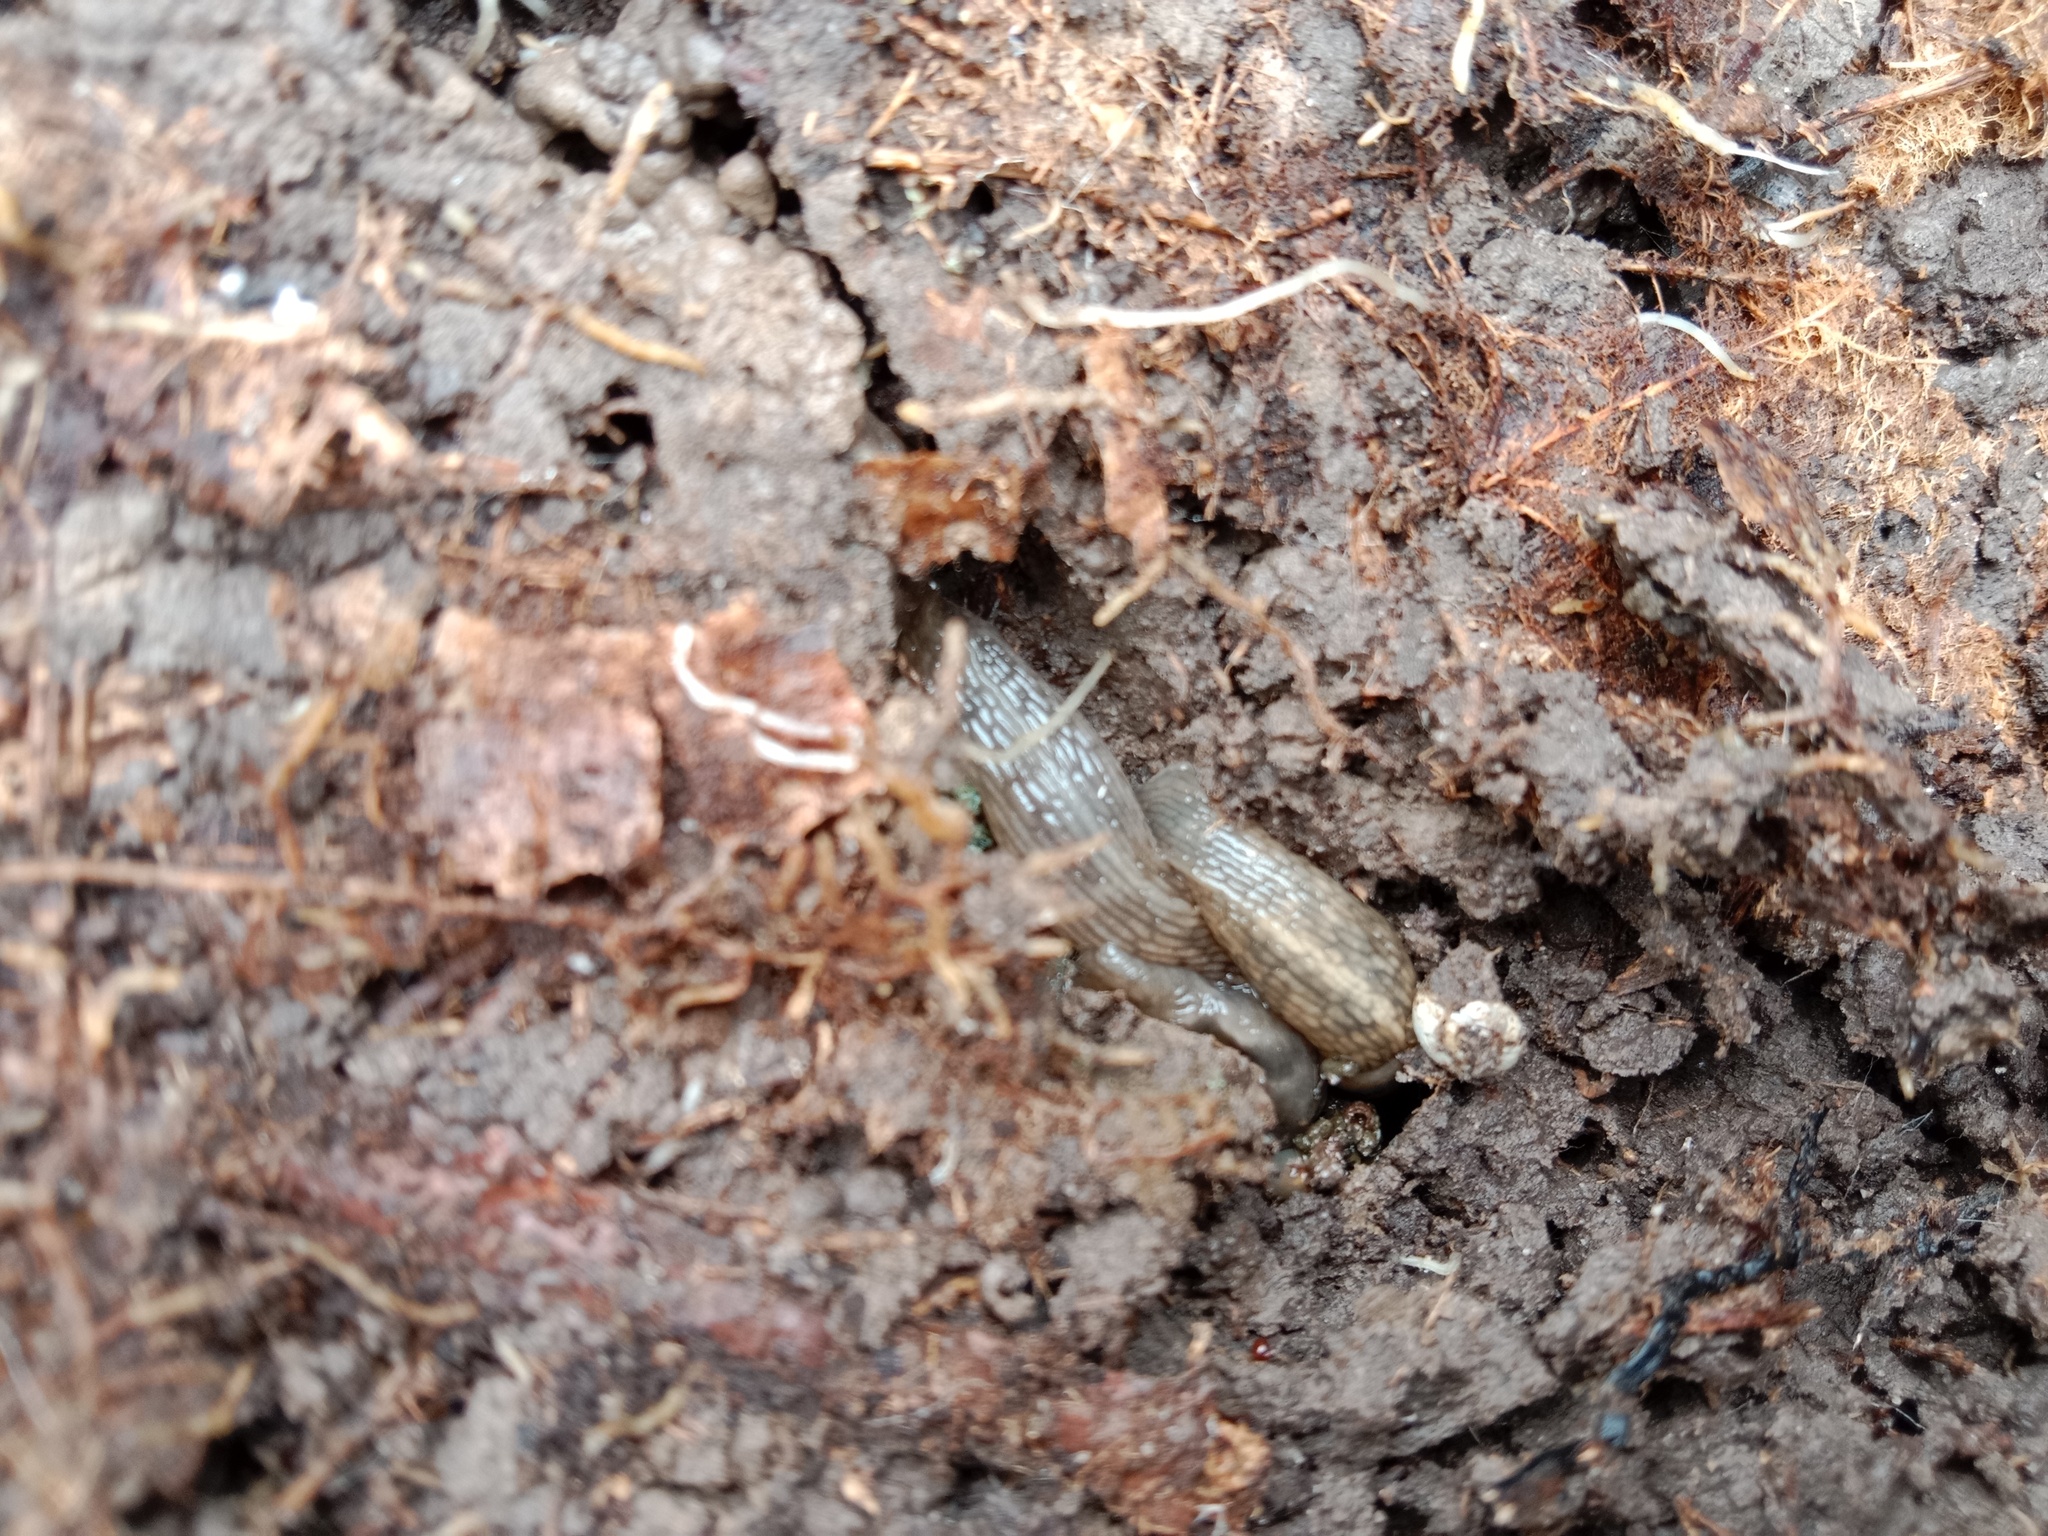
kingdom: Animalia
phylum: Mollusca
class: Gastropoda
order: Stylommatophora
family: Limacidae
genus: Lehmannia
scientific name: Lehmannia marginata
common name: Tree slug
